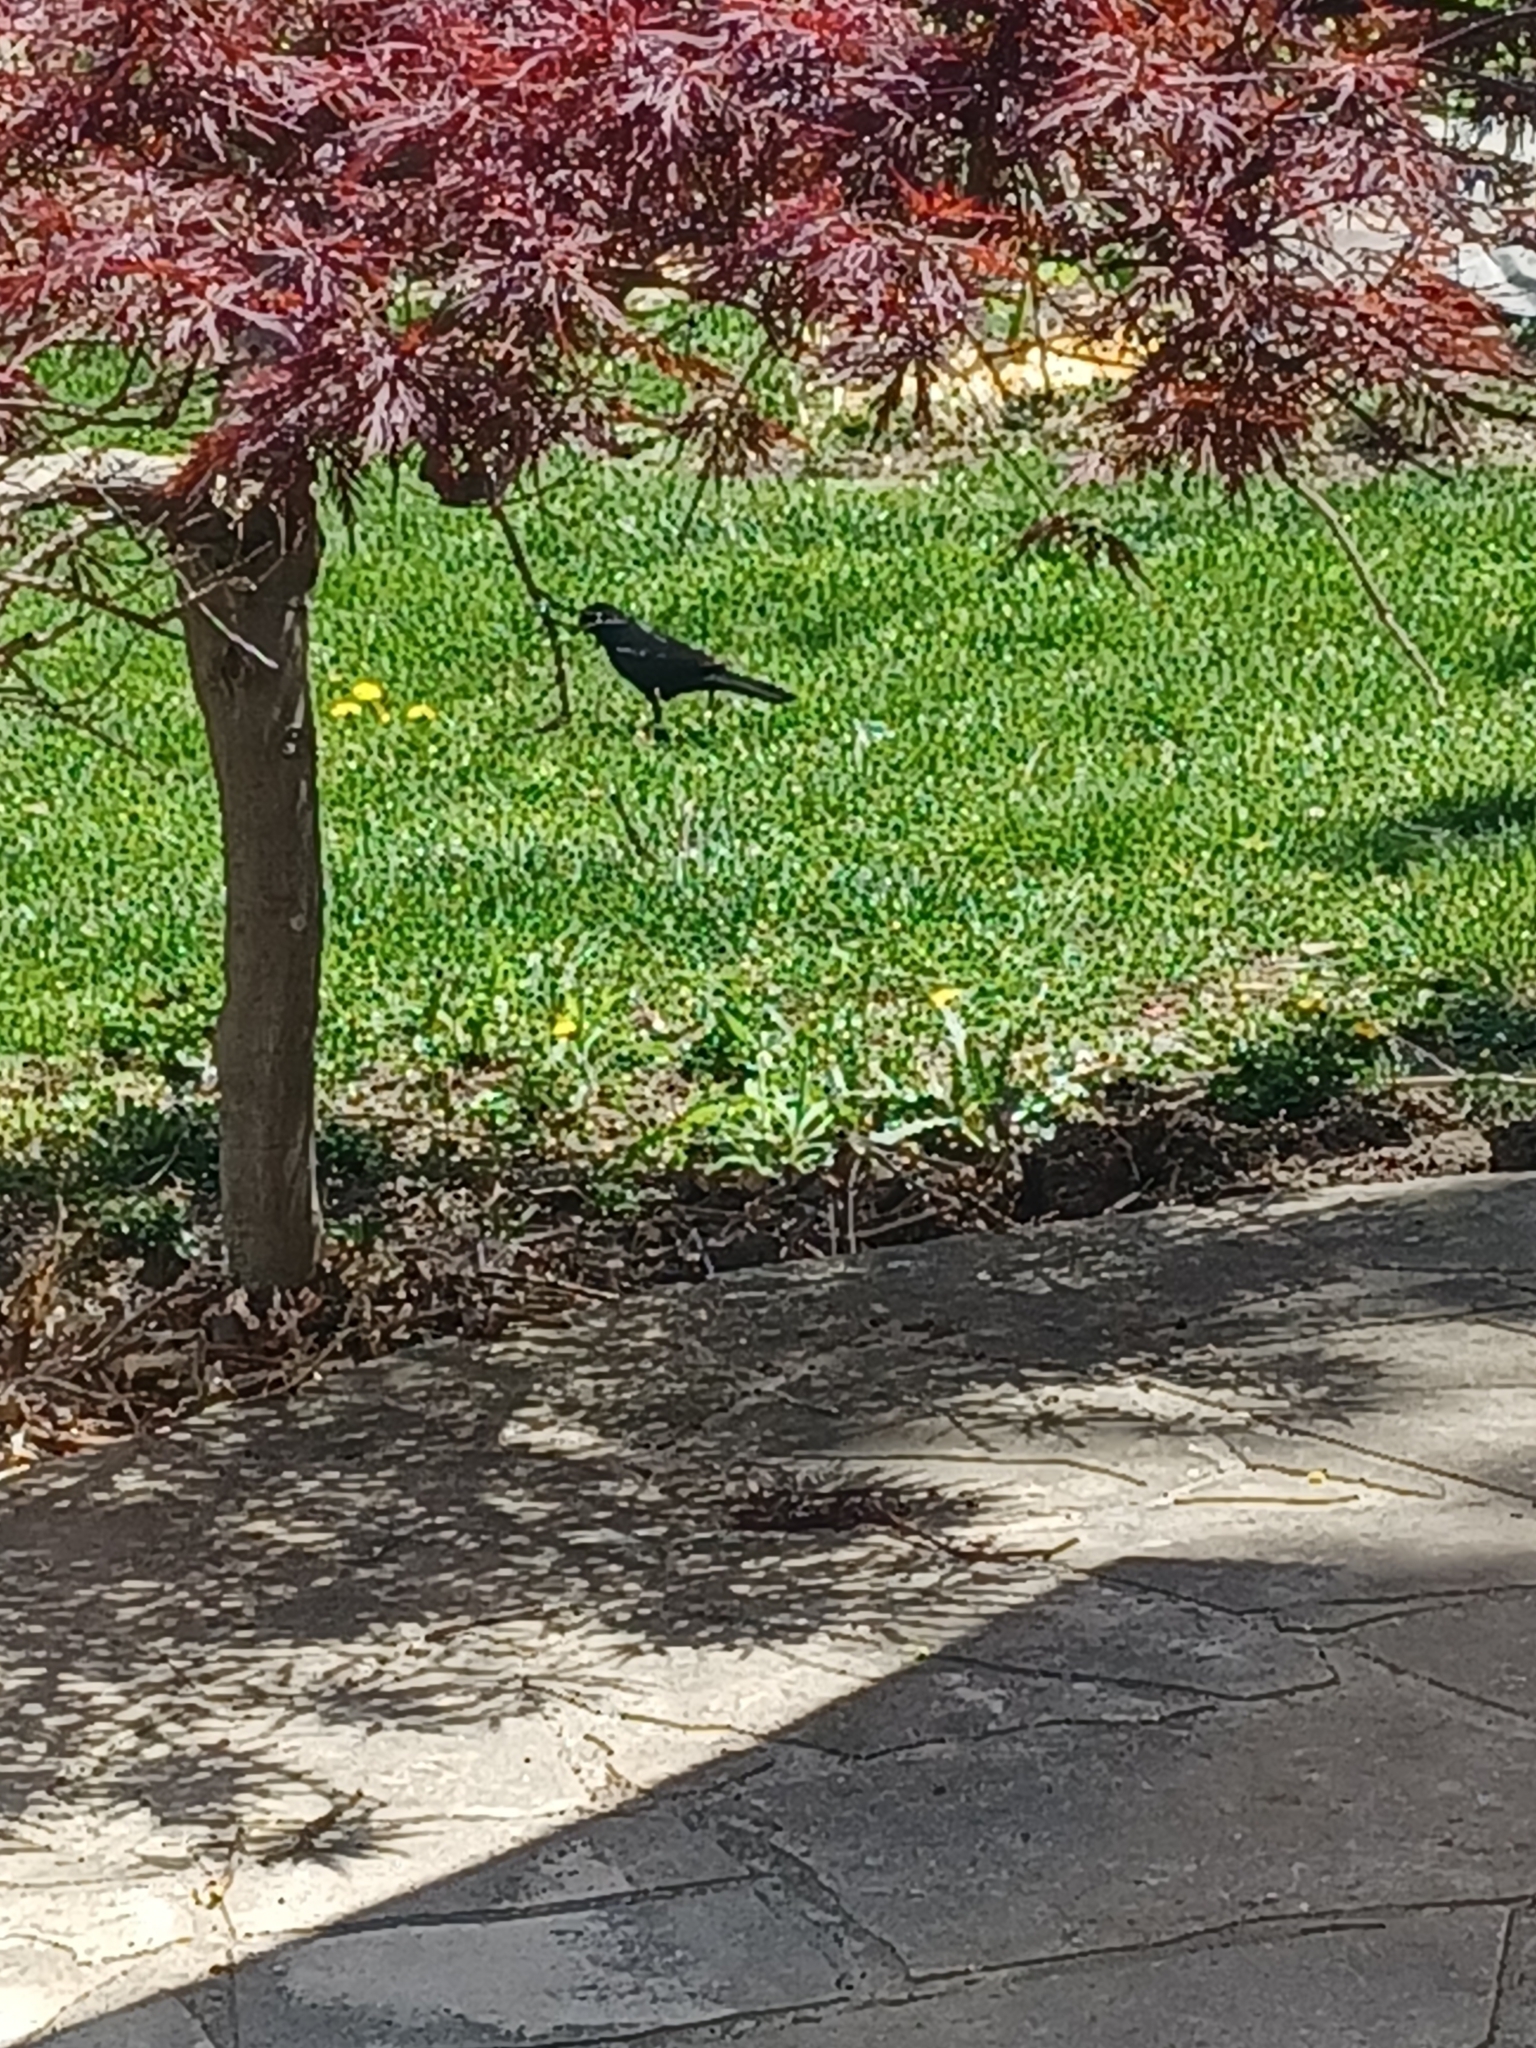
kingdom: Animalia
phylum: Chordata
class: Aves
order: Passeriformes
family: Icteridae
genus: Quiscalus
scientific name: Quiscalus quiscula
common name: Common grackle
